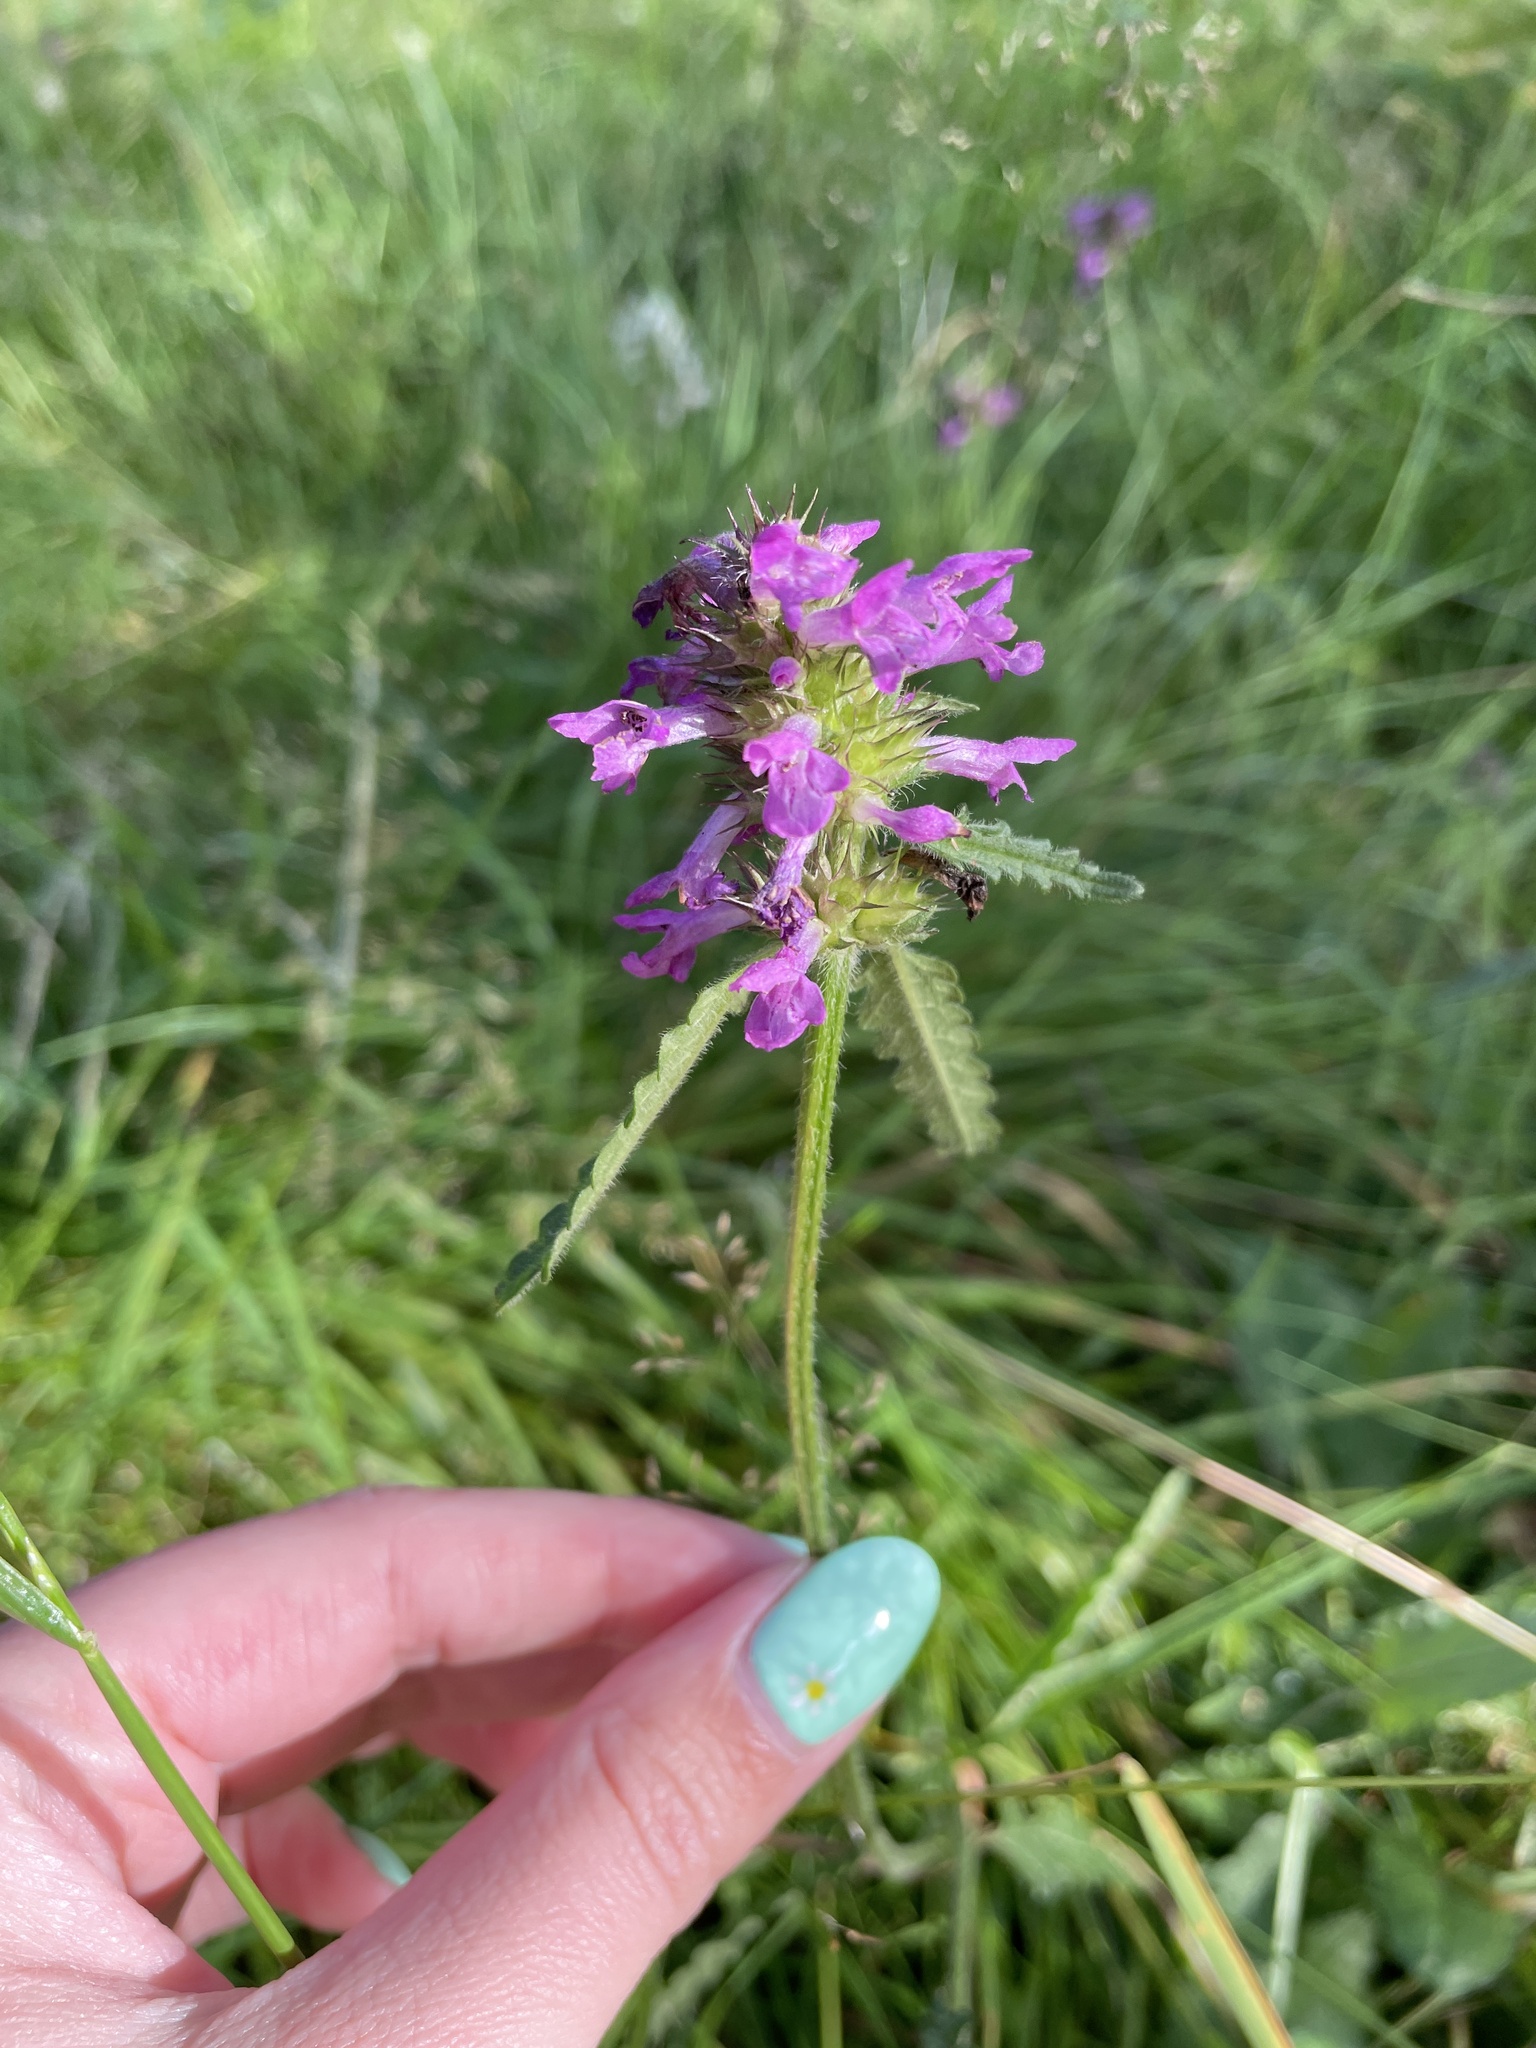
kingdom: Plantae
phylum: Tracheophyta
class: Magnoliopsida
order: Lamiales
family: Lamiaceae
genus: Betonica
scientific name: Betonica officinalis
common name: Bishop's-wort
